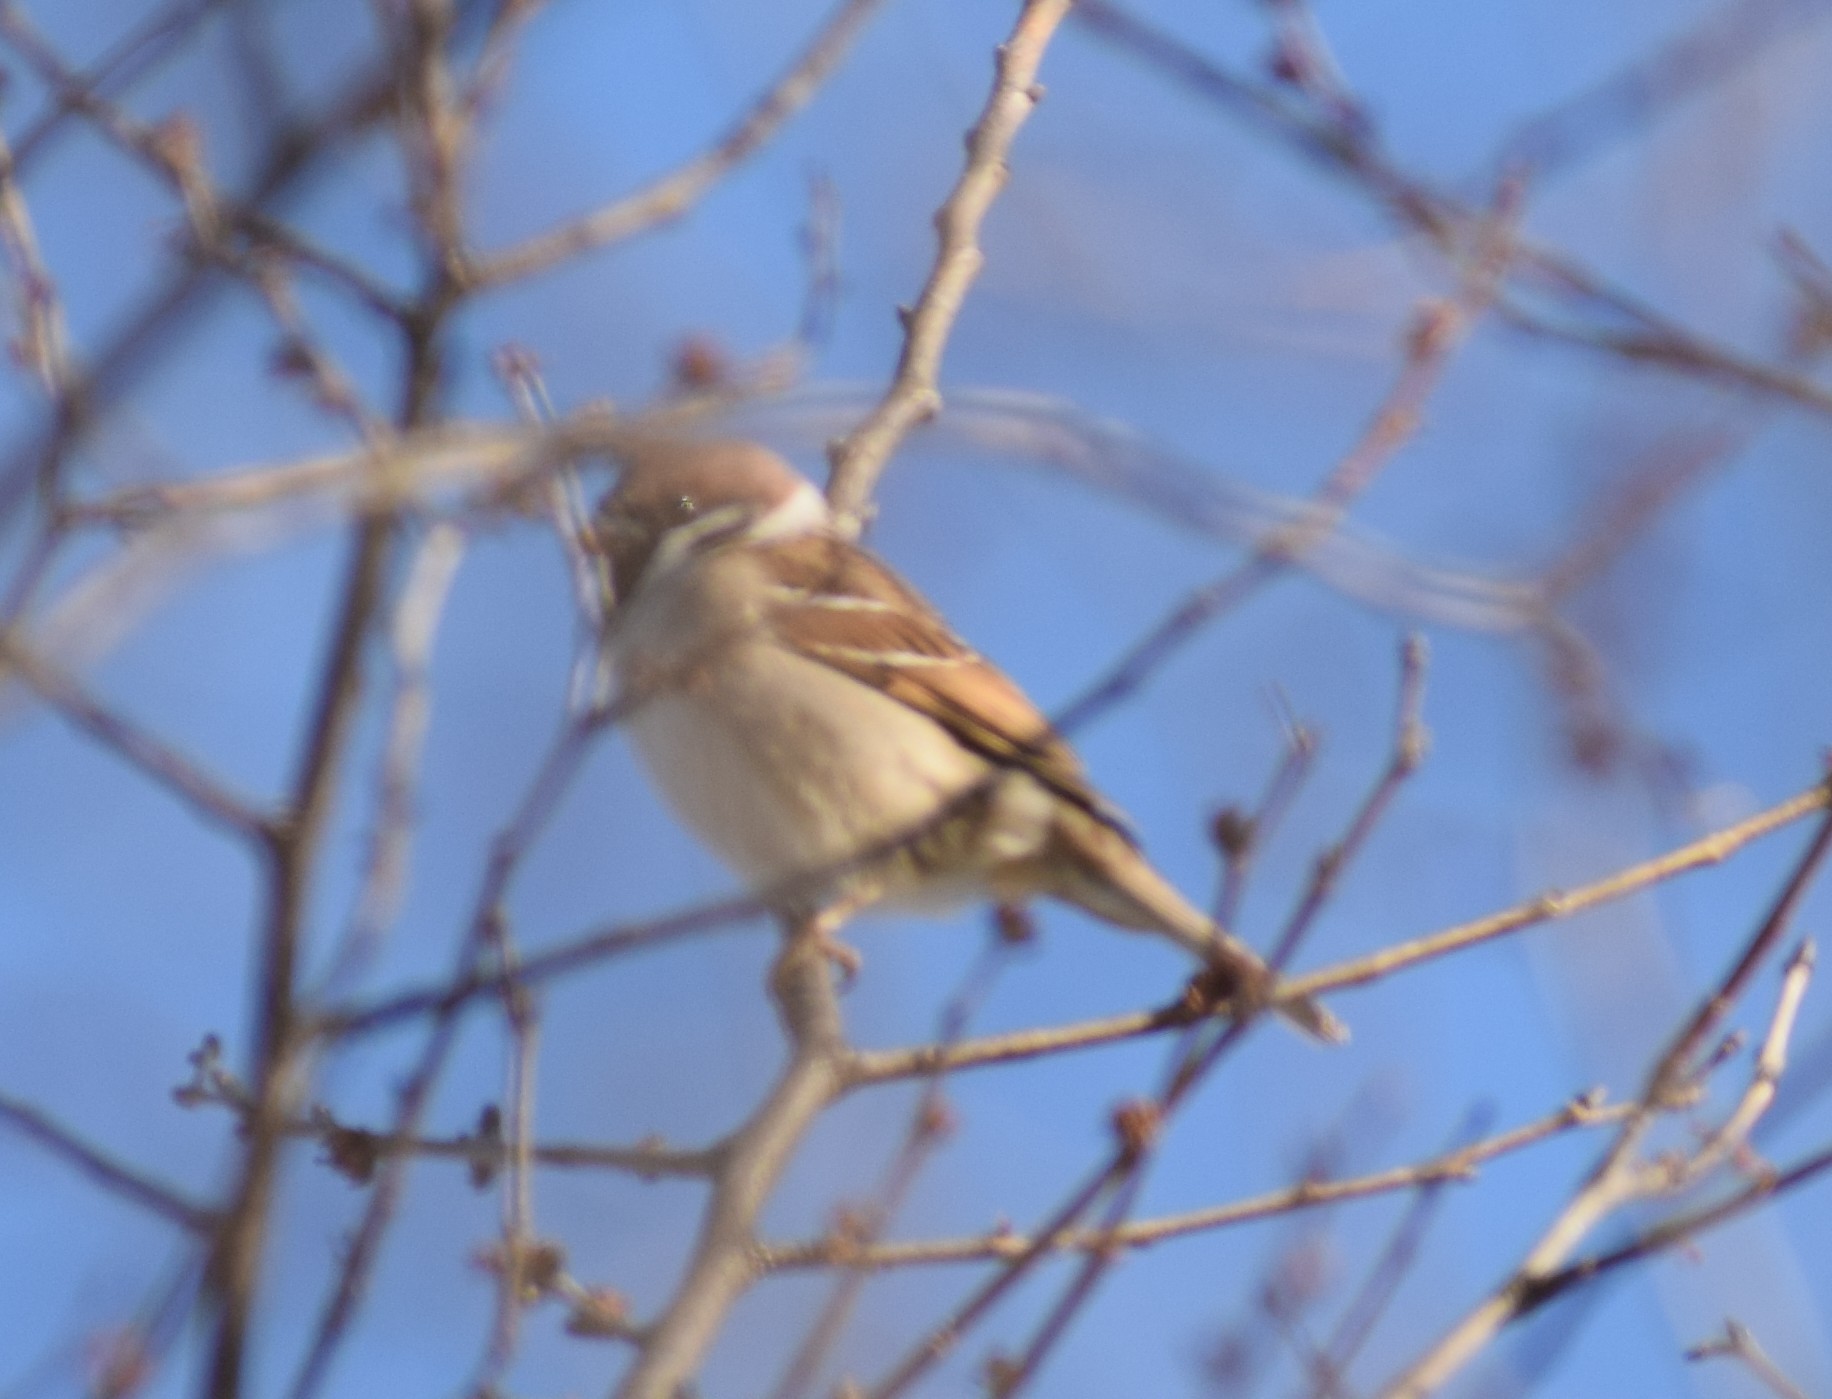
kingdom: Animalia
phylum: Chordata
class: Aves
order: Passeriformes
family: Passeridae
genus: Passer
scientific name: Passer montanus
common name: Eurasian tree sparrow
